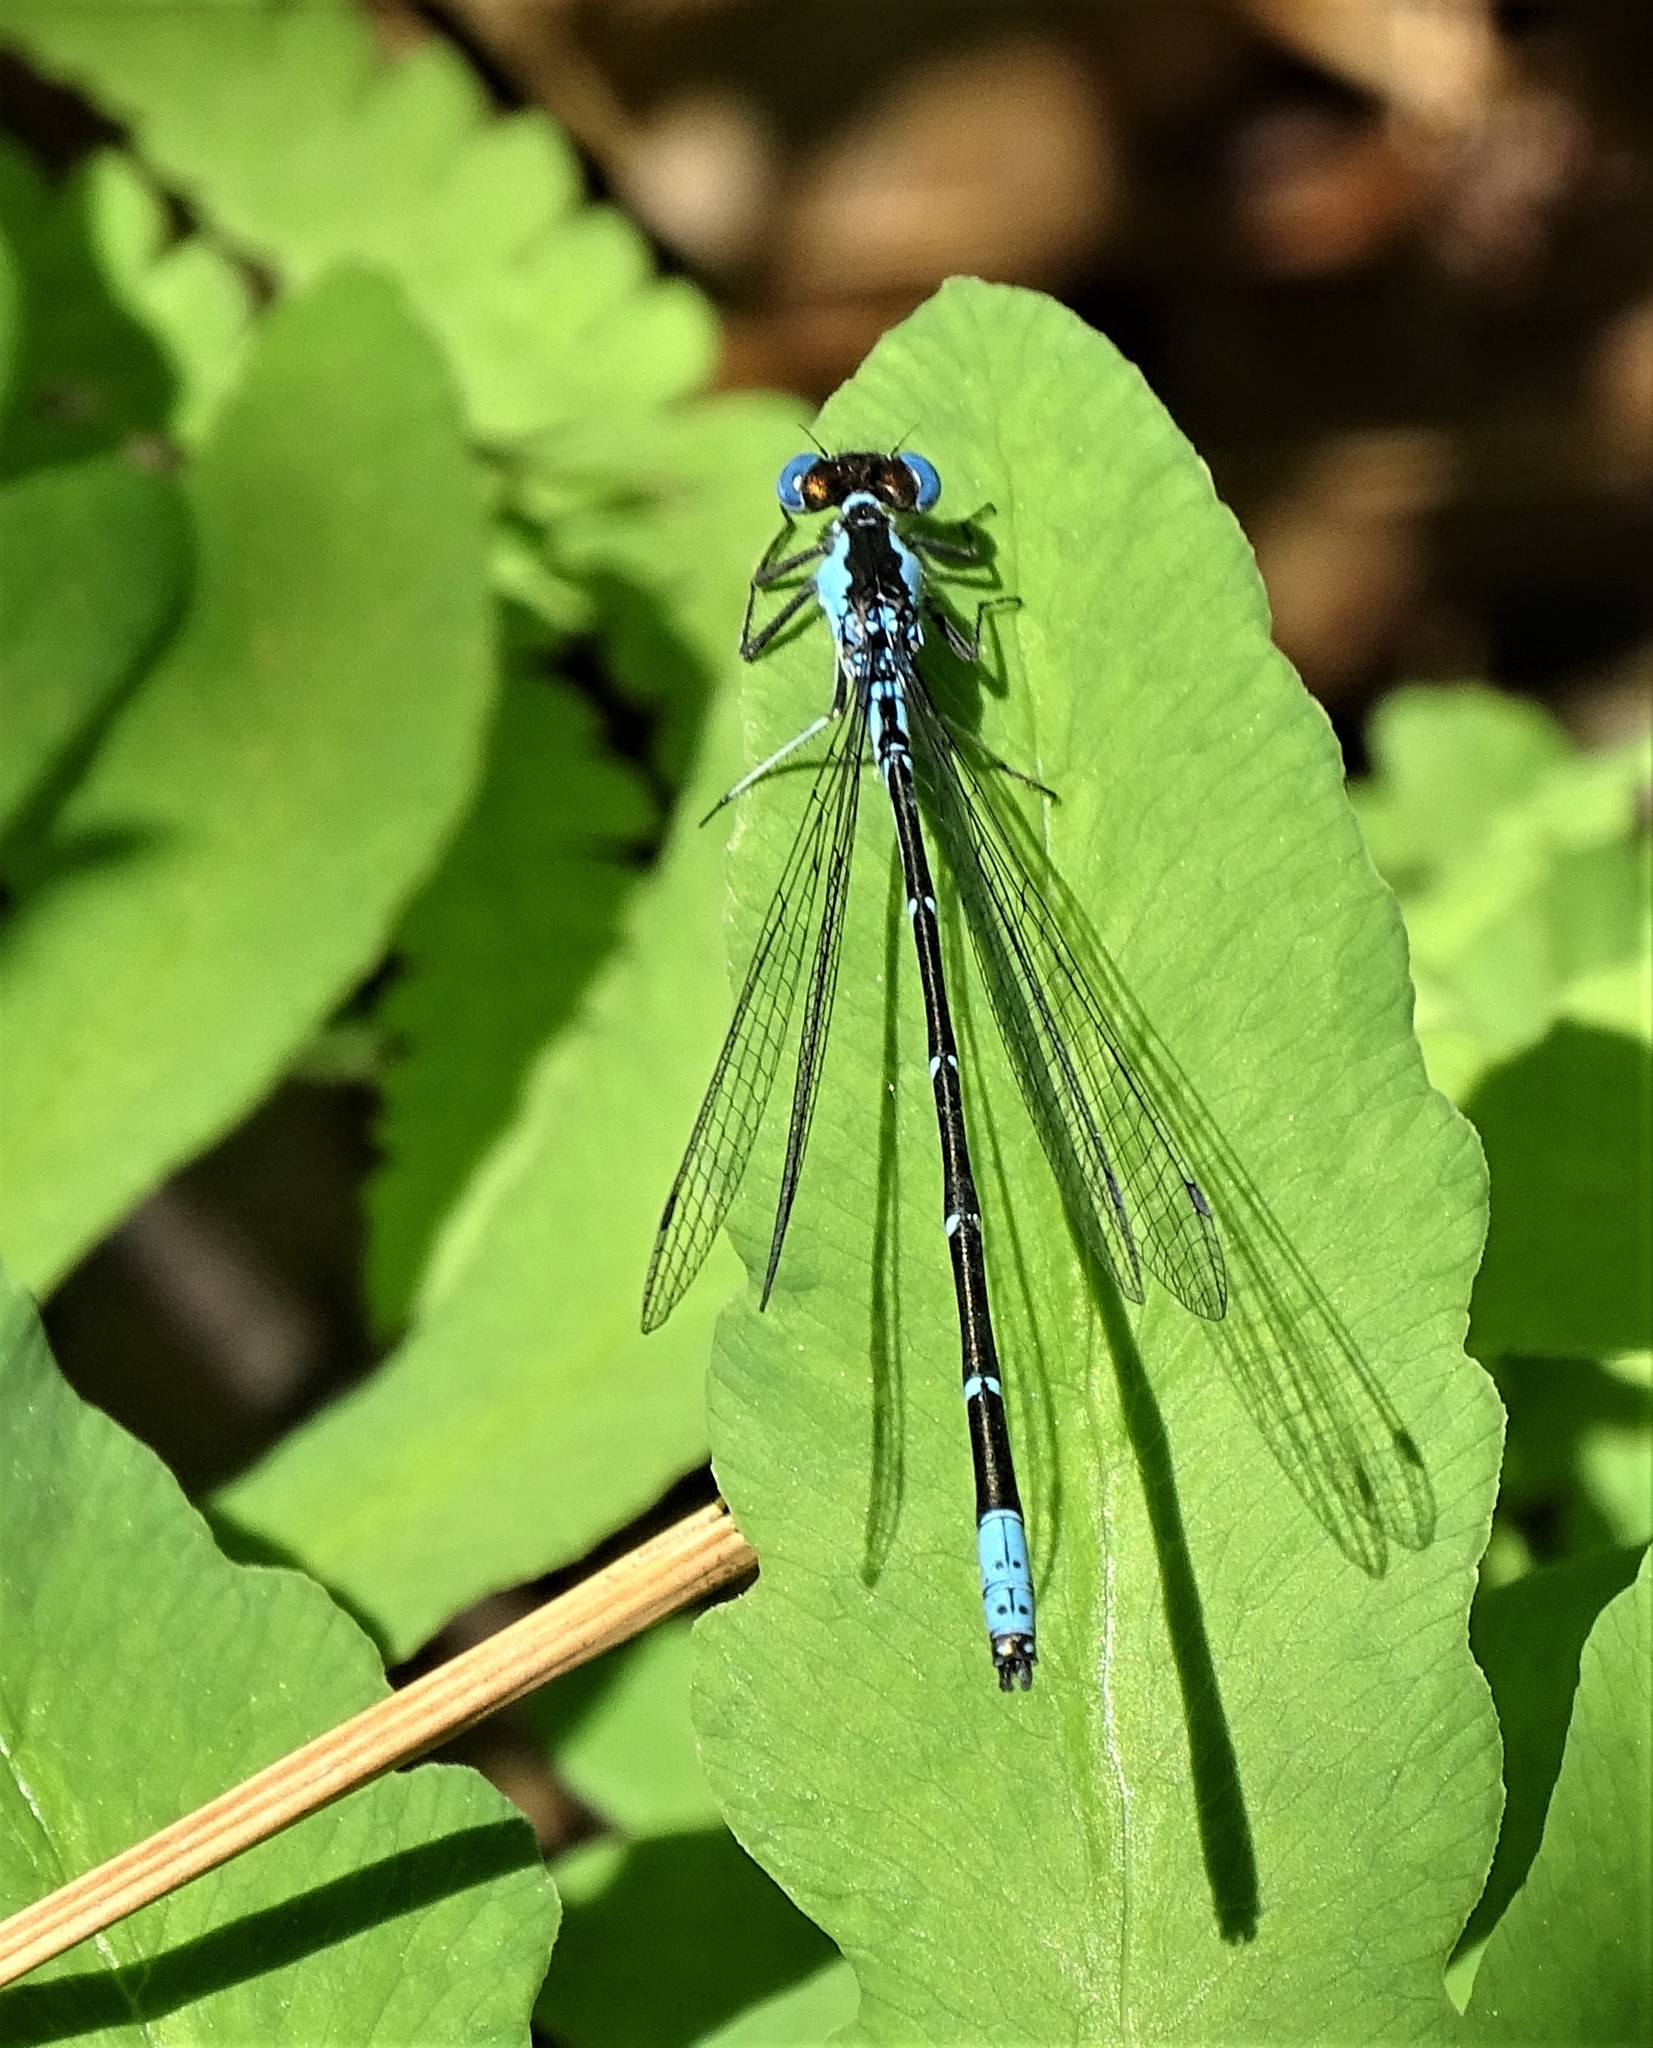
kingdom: Animalia
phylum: Arthropoda
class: Insecta
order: Odonata
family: Coenagrionidae
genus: Chromagrion
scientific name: Chromagrion conditum
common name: Aurora damsel
